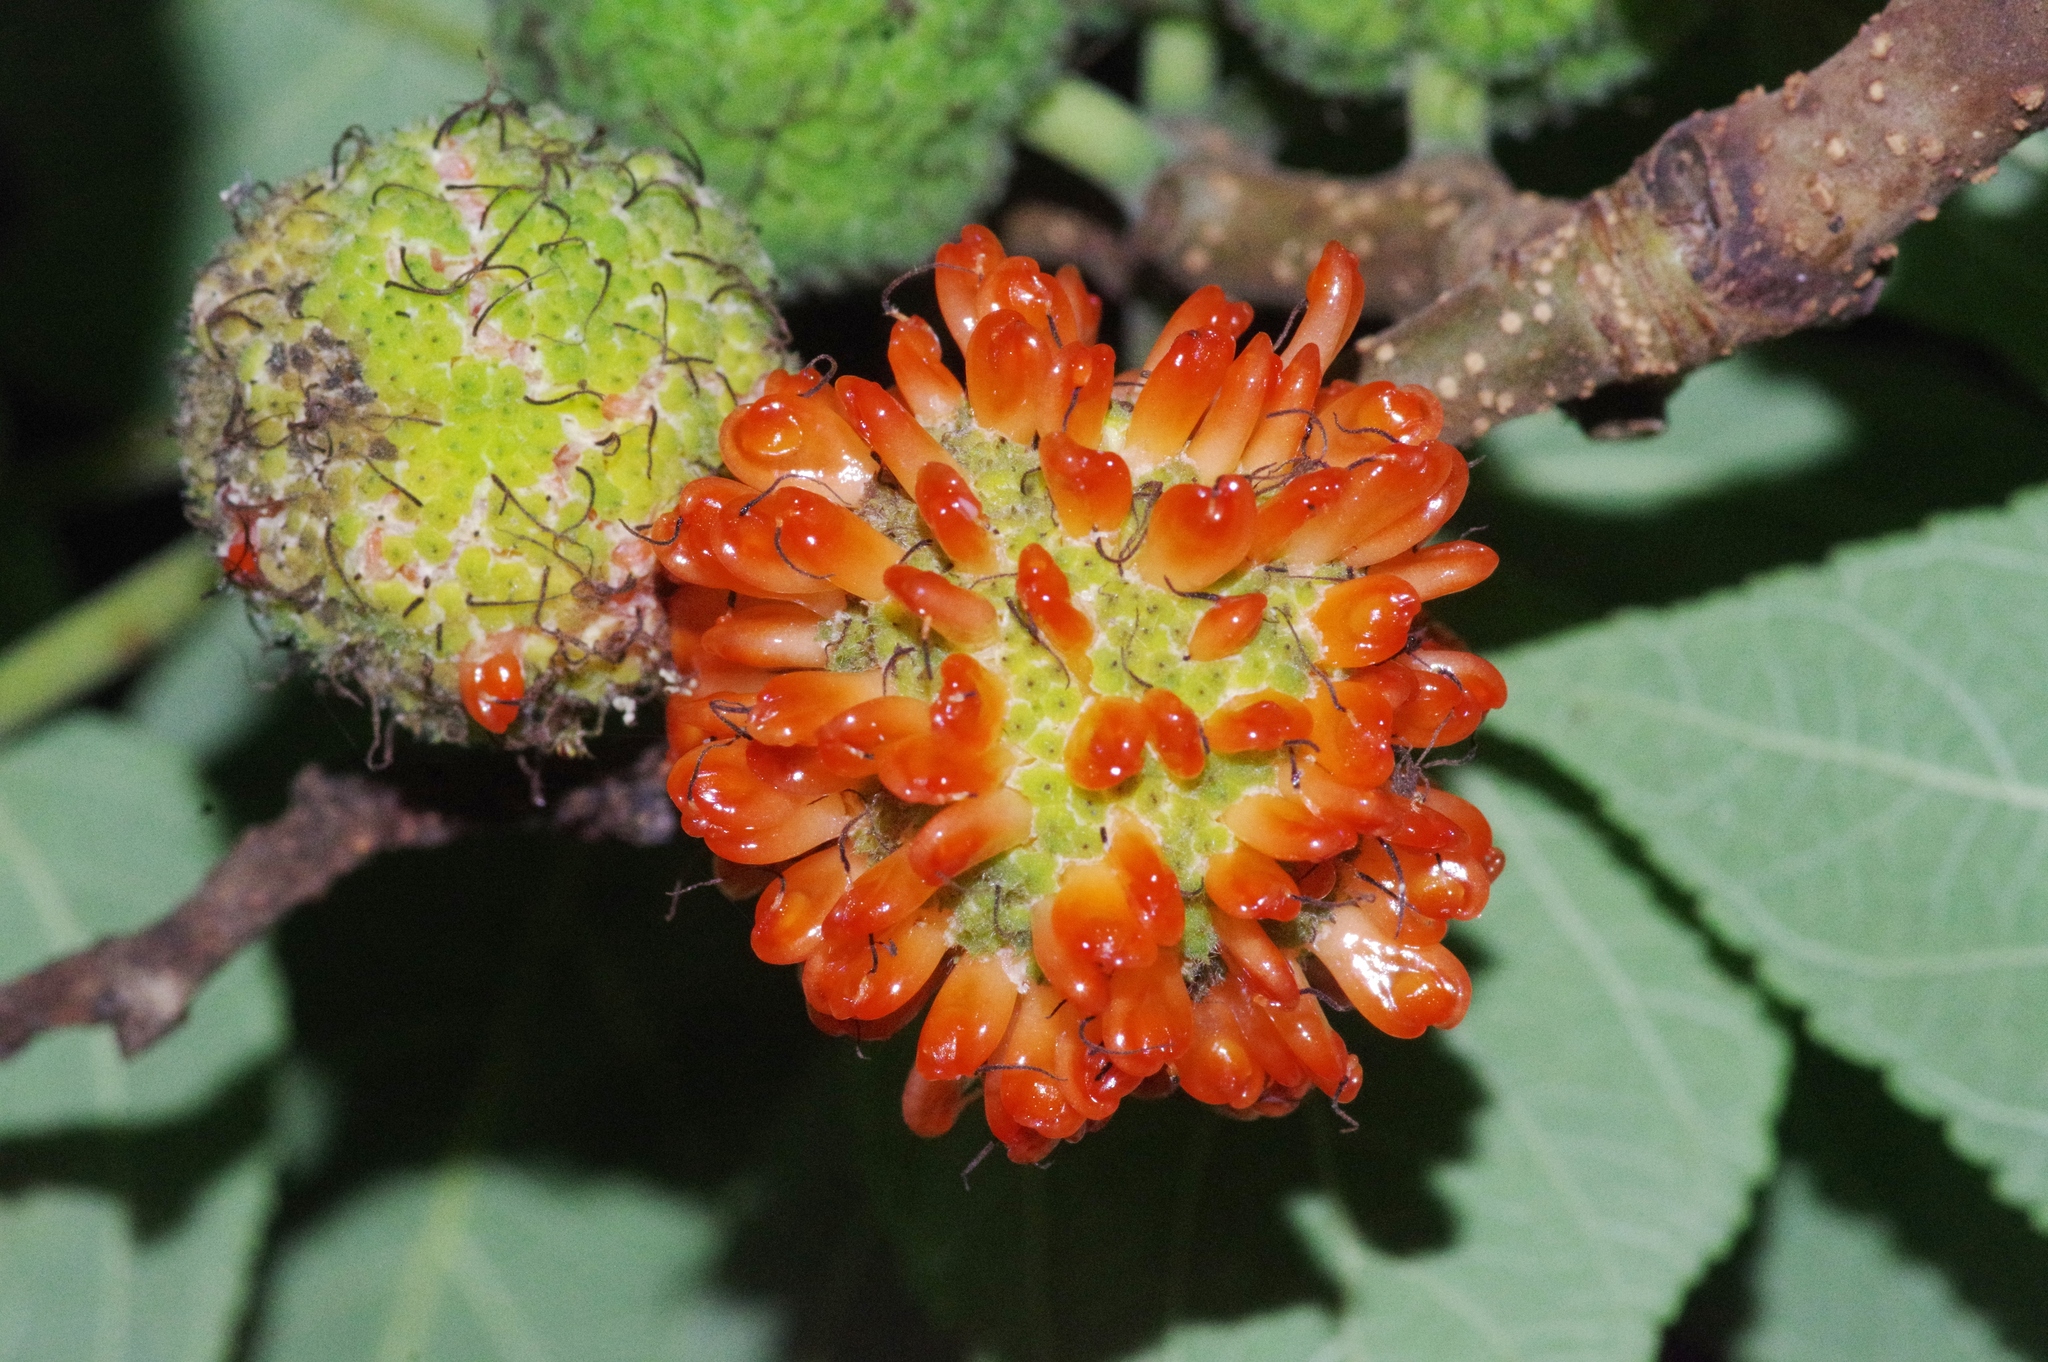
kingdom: Plantae
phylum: Tracheophyta
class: Magnoliopsida
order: Rosales
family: Moraceae
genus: Broussonetia
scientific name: Broussonetia papyrifera
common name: Paper mulberry
